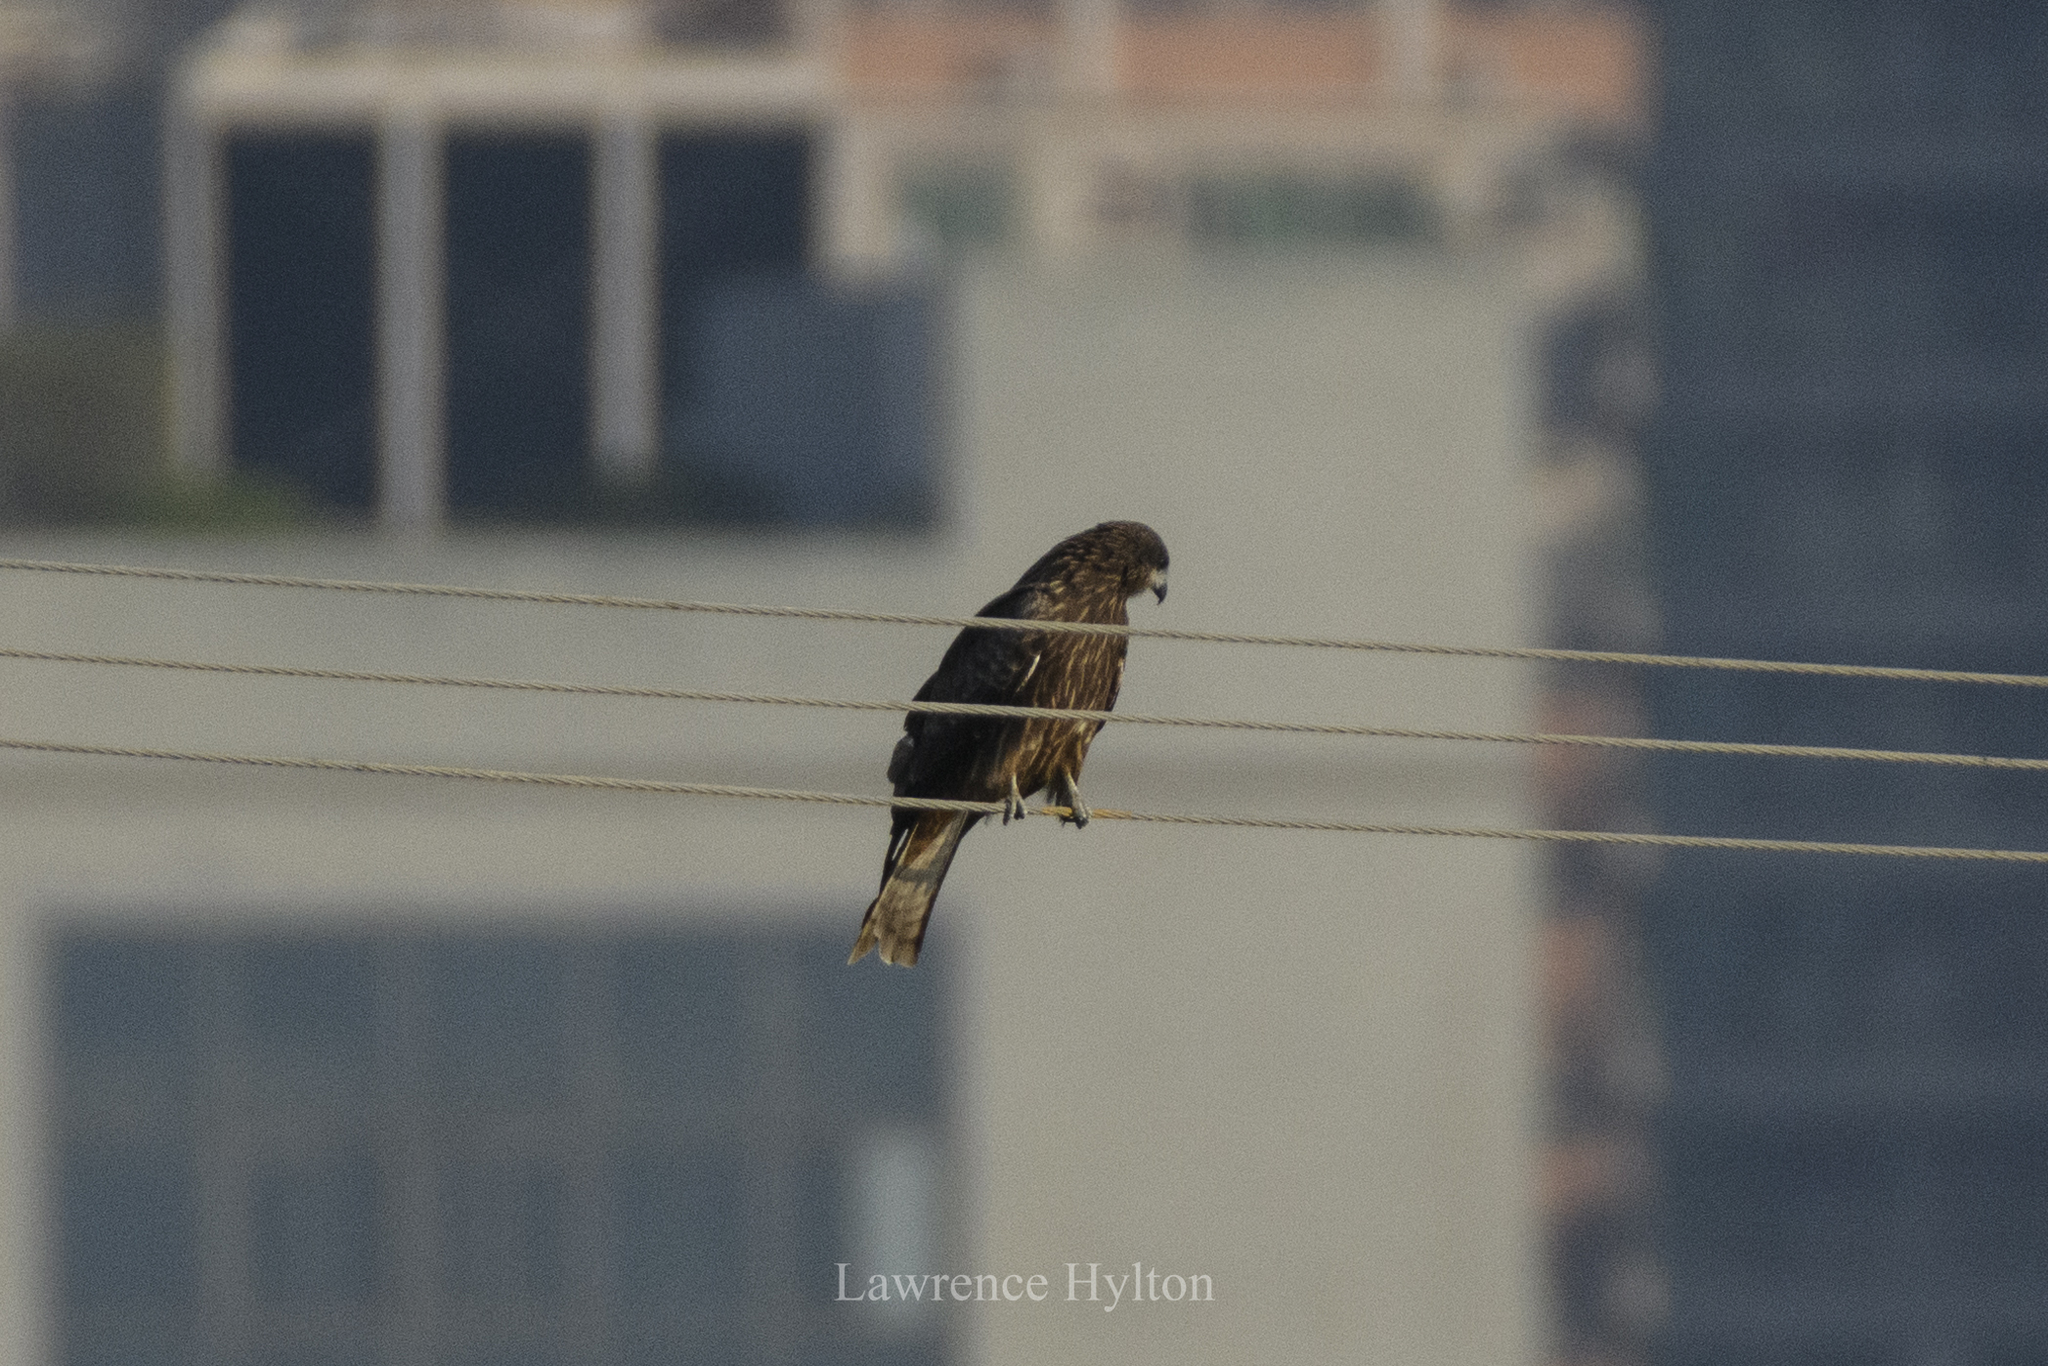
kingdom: Animalia
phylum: Chordata
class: Aves
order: Accipitriformes
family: Accipitridae
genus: Milvus
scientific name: Milvus migrans
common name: Black kite
